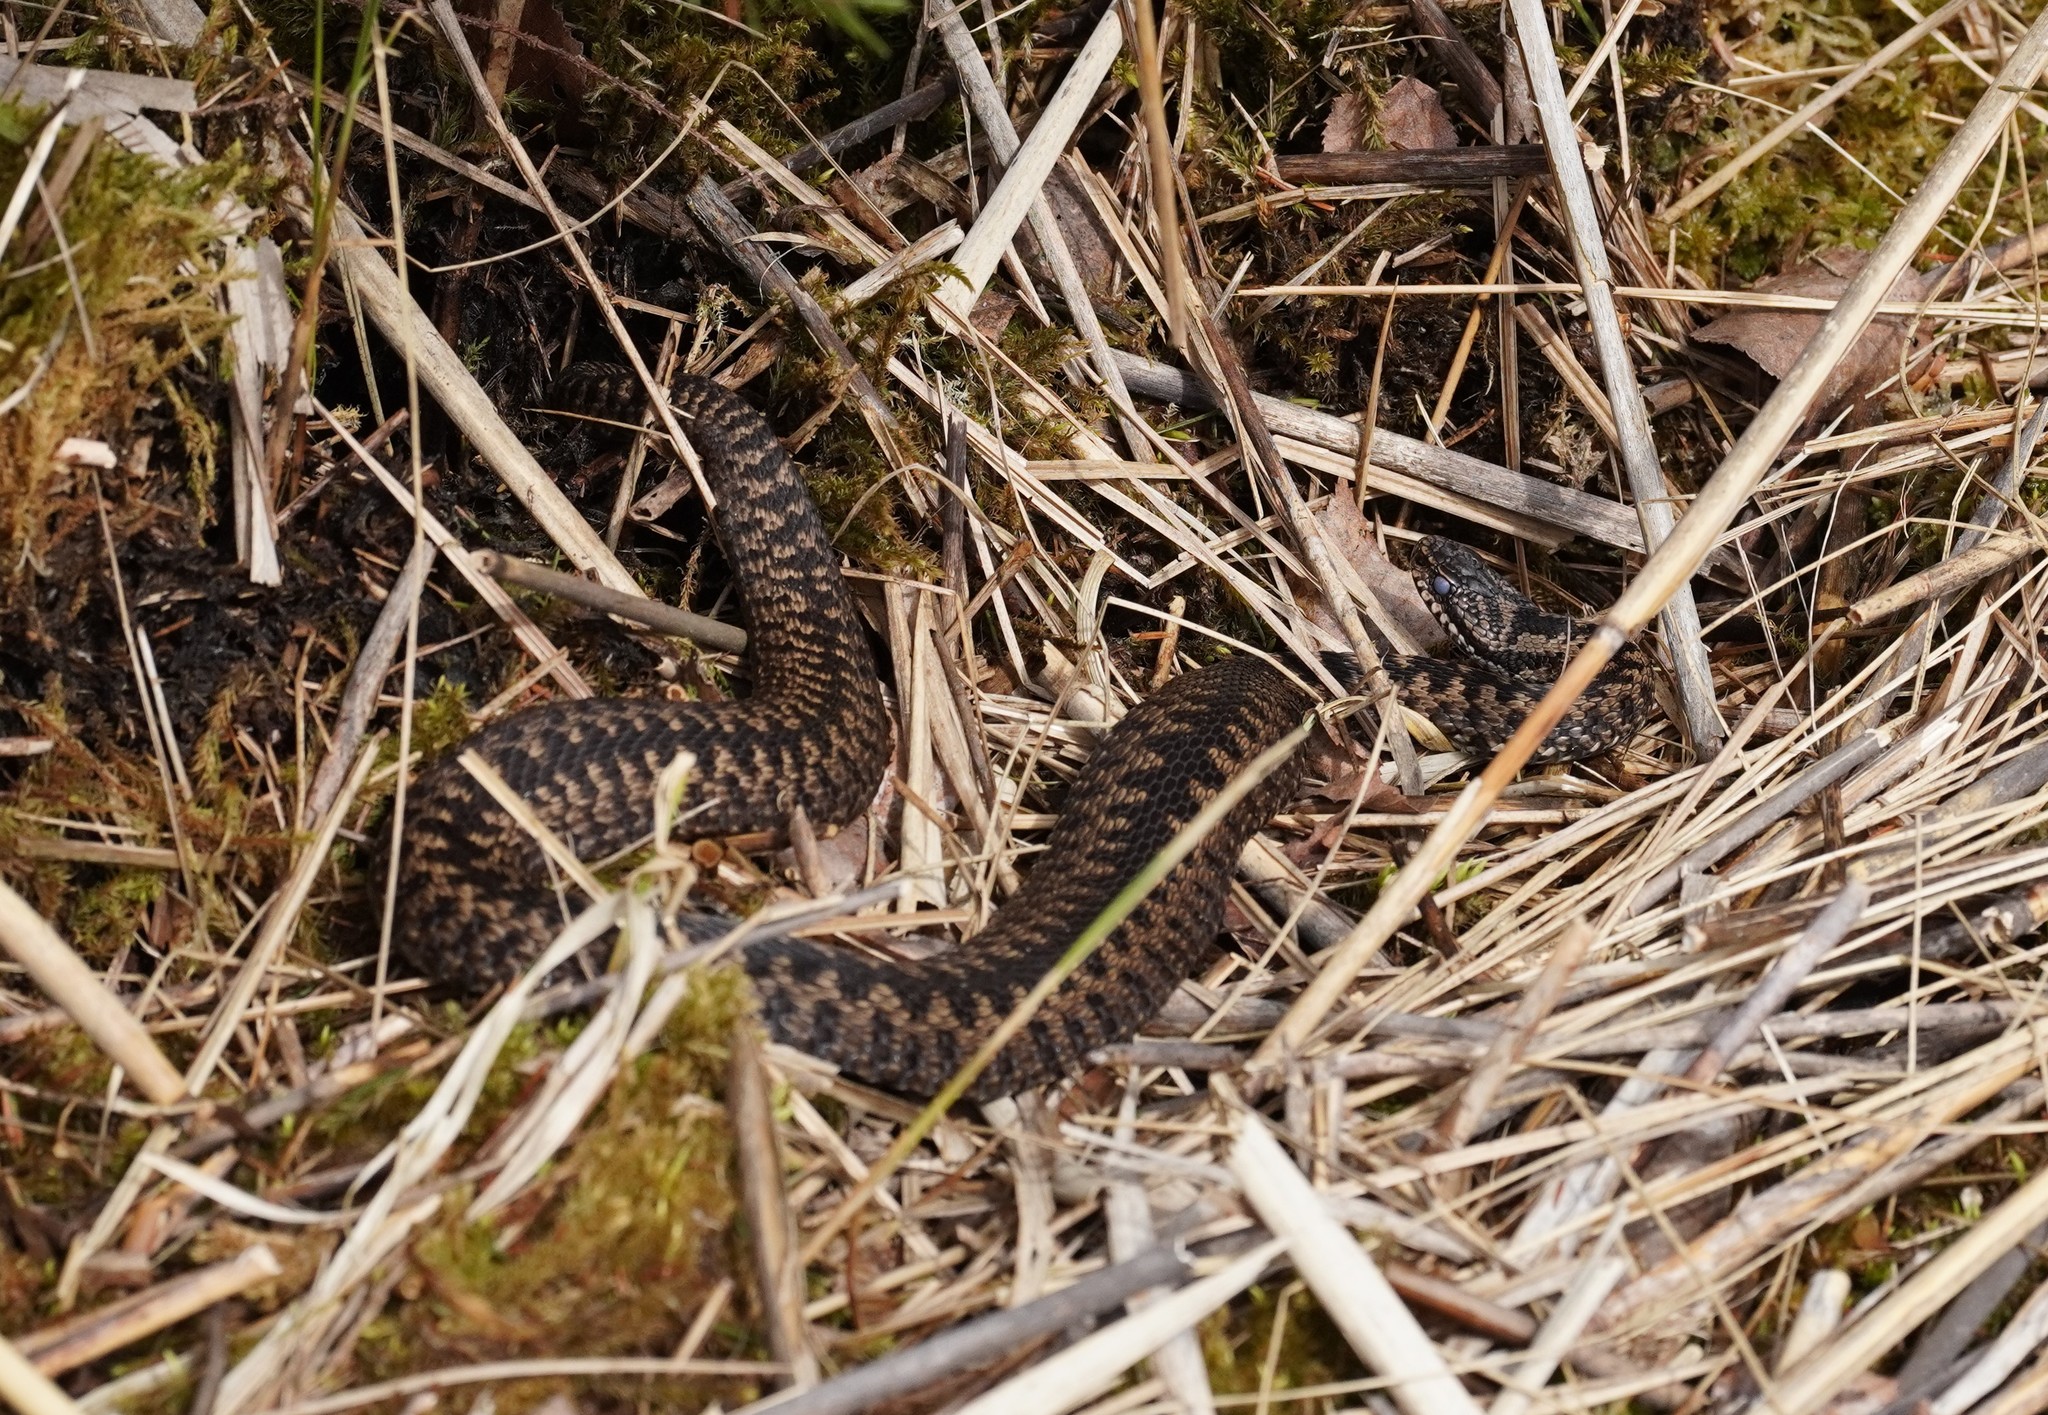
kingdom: Animalia
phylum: Chordata
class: Squamata
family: Viperidae
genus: Vipera
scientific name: Vipera berus
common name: Adder
